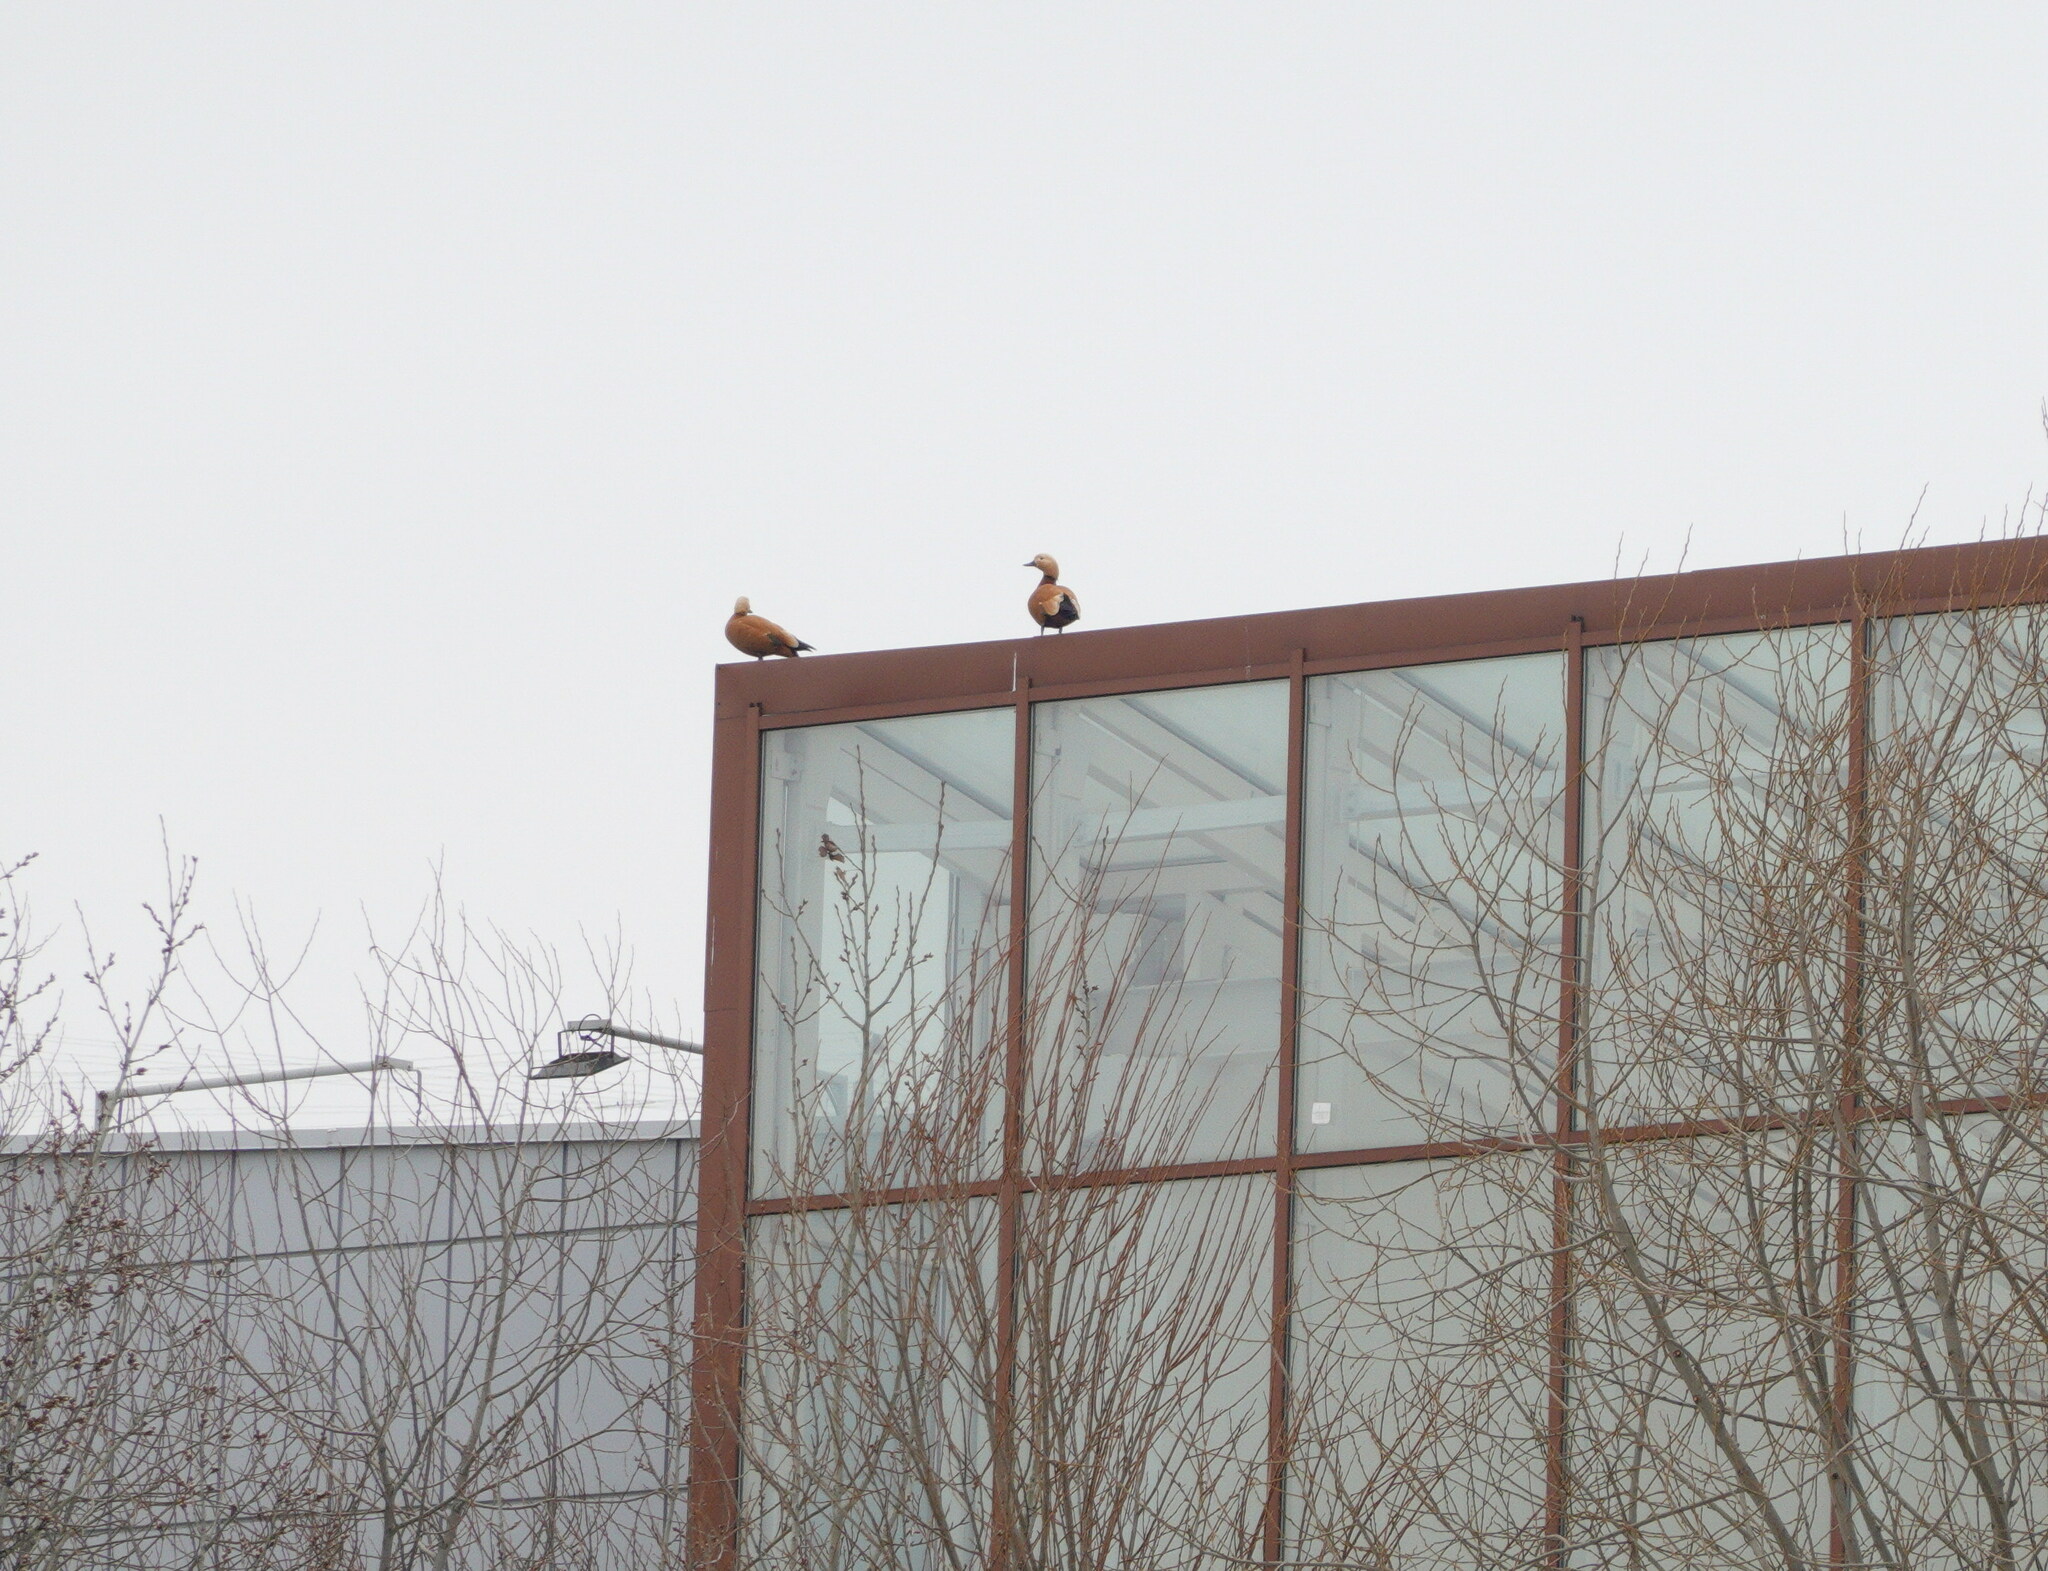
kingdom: Animalia
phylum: Chordata
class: Aves
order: Anseriformes
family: Anatidae
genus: Tadorna
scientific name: Tadorna ferruginea
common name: Ruddy shelduck
